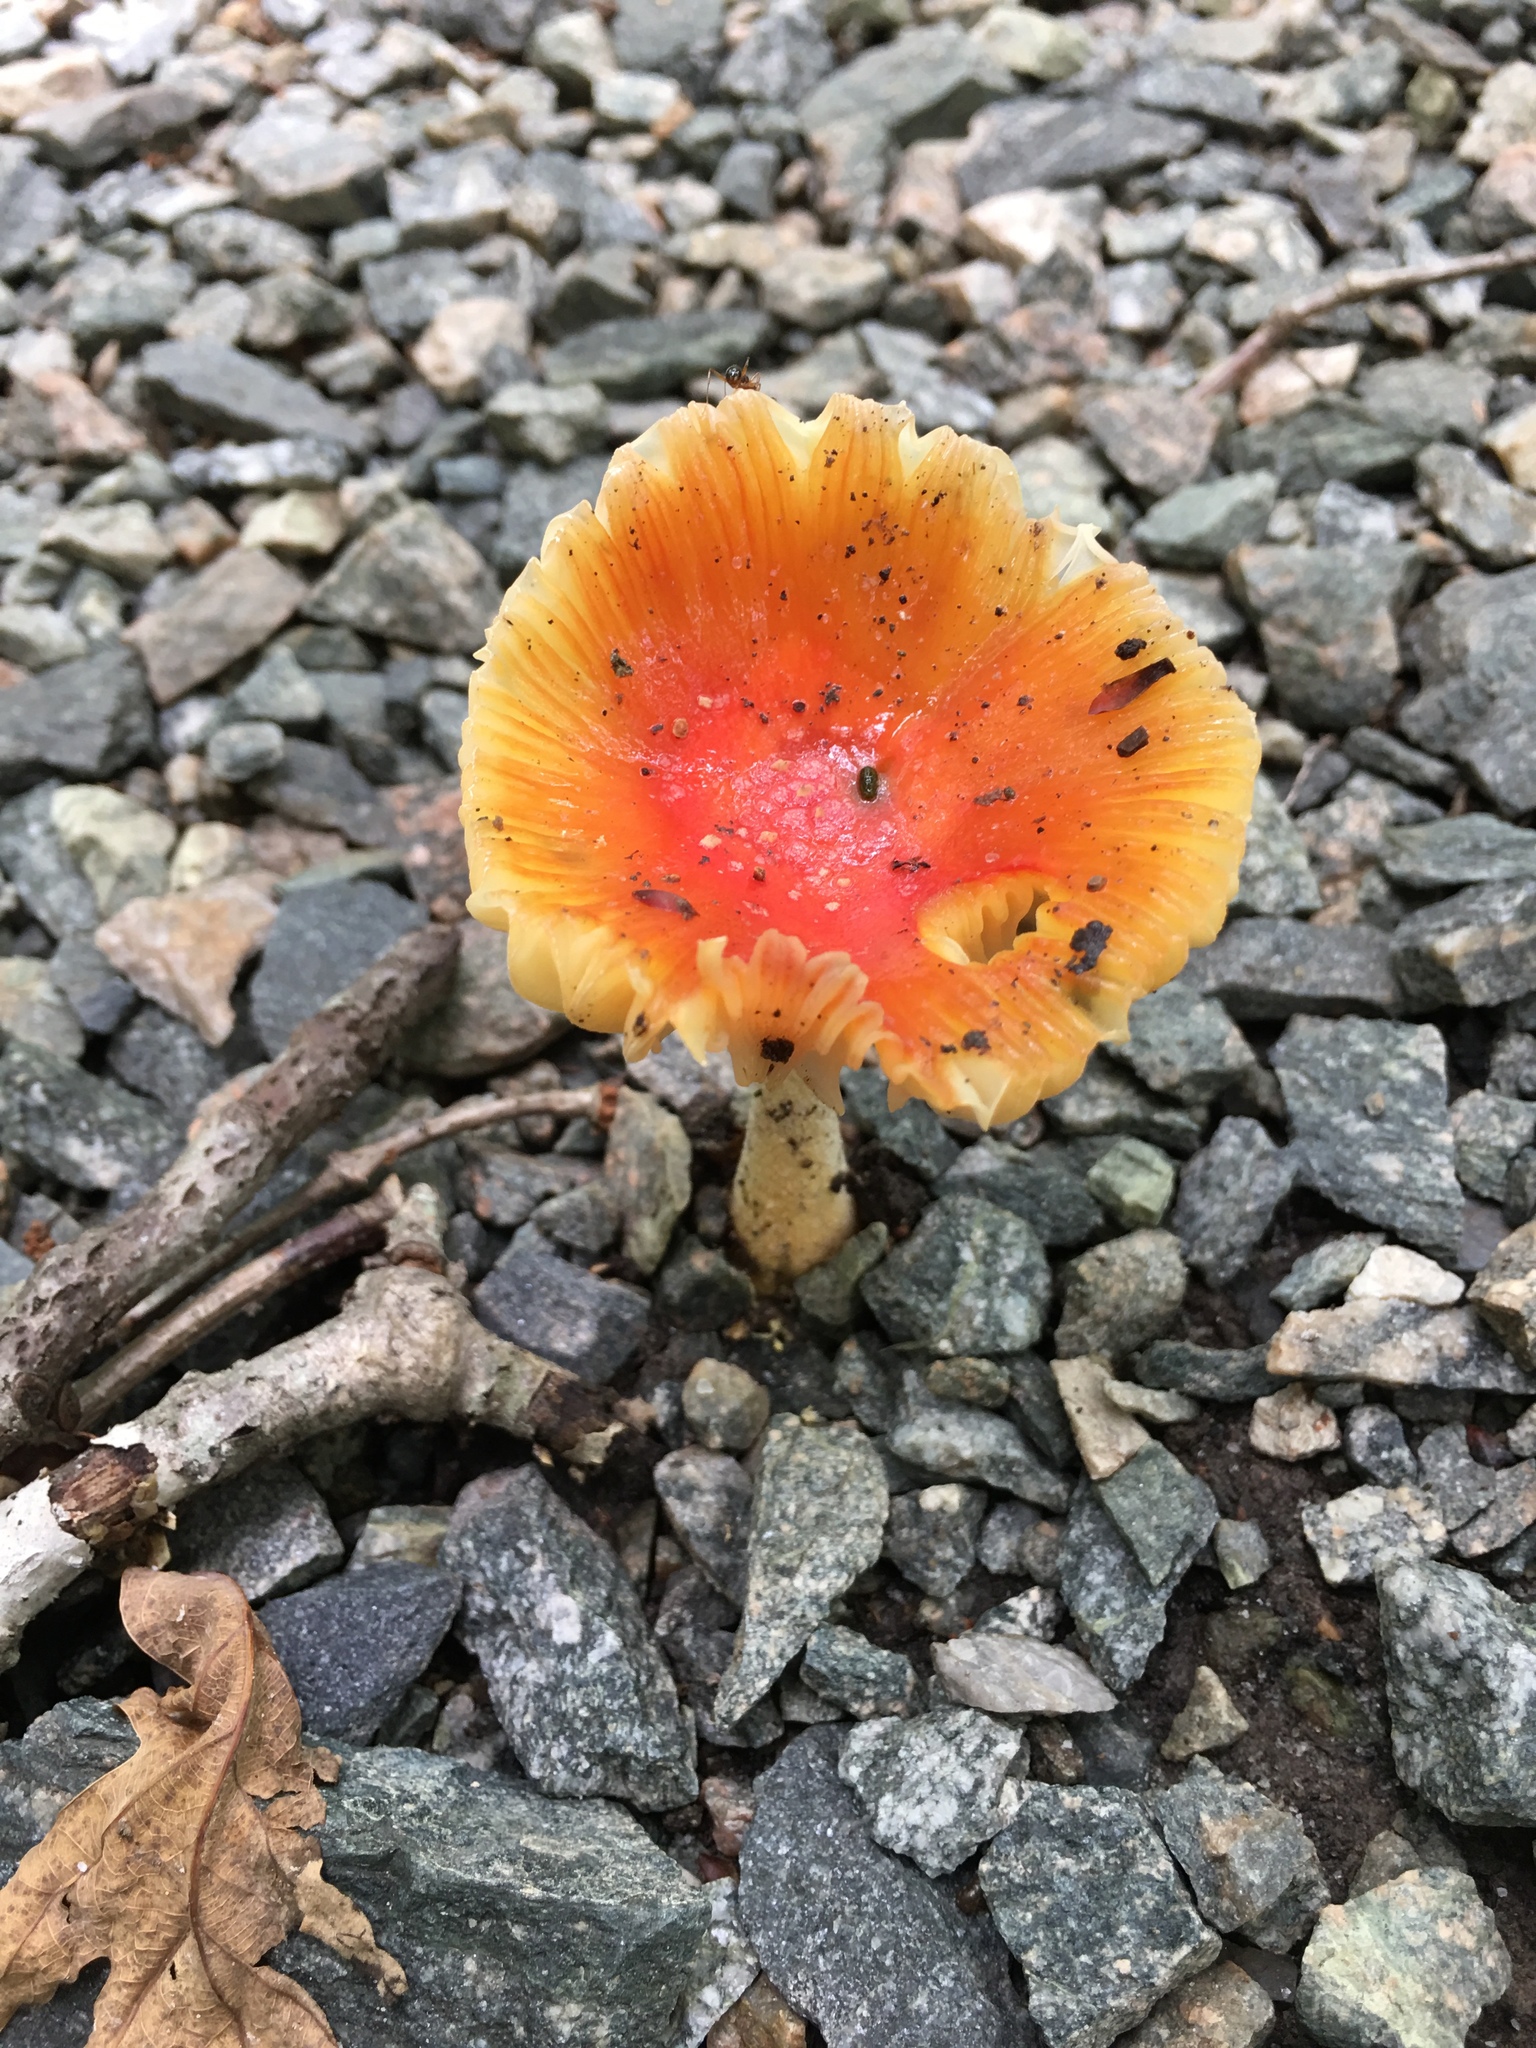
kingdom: Fungi
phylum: Basidiomycota
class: Agaricomycetes
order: Agaricales
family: Amanitaceae
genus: Amanita
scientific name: Amanita parcivolvata
